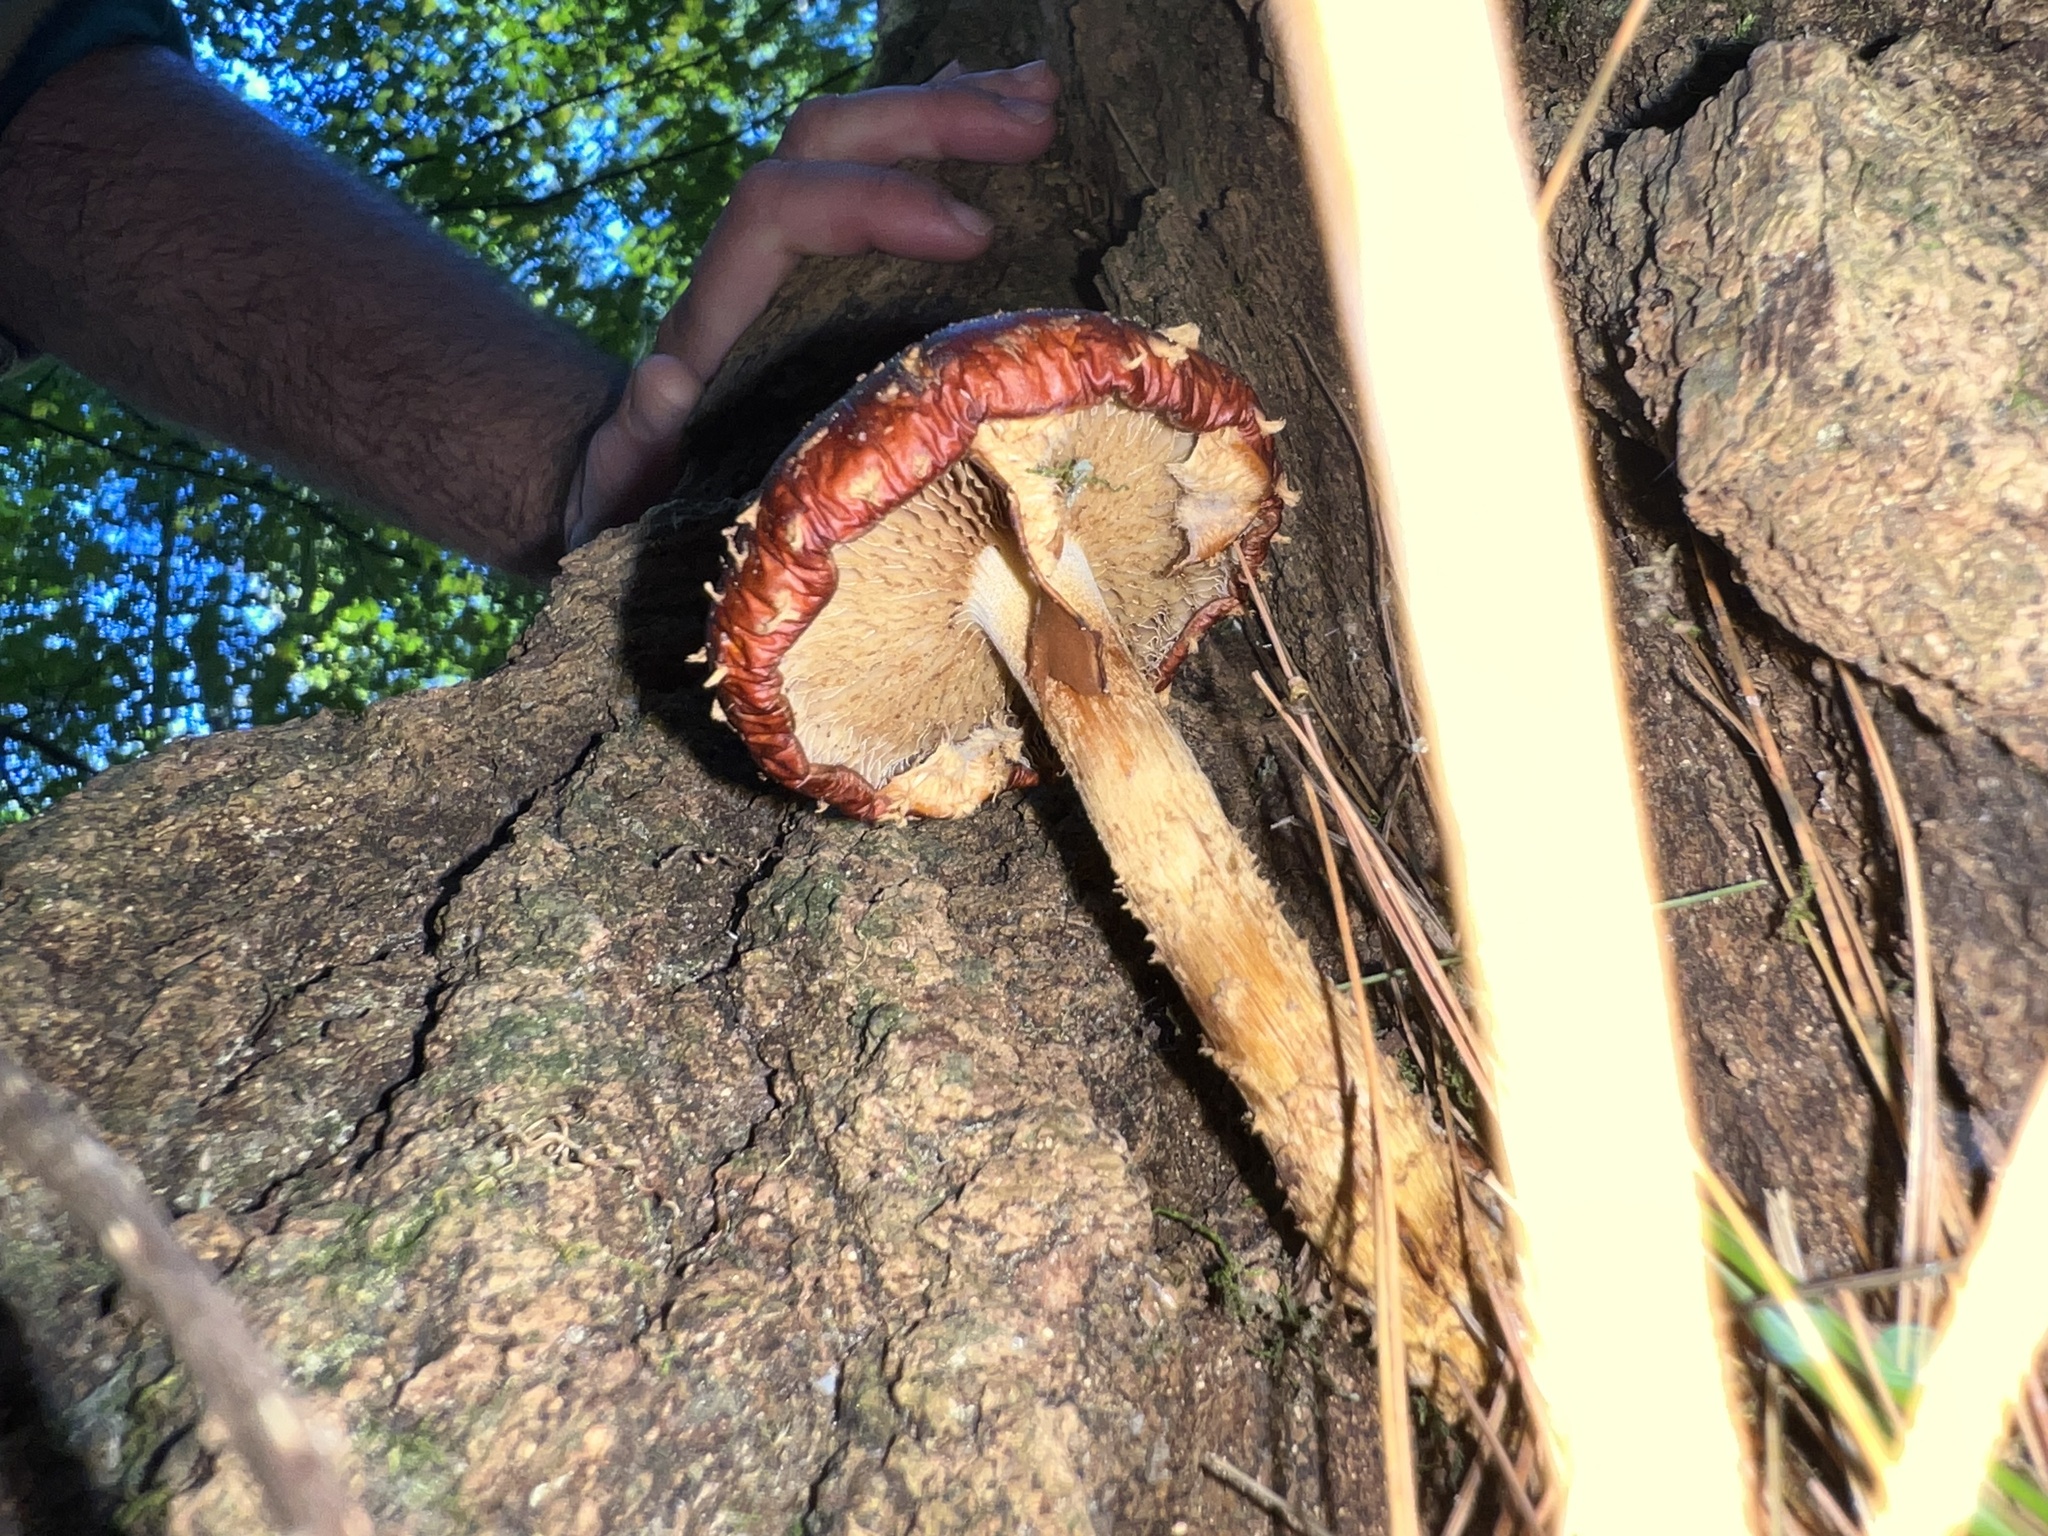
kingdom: Fungi
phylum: Basidiomycota
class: Agaricomycetes
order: Agaricales
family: Tubariaceae
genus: Hemistropharia
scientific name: Hemistropharia albocrenulata
